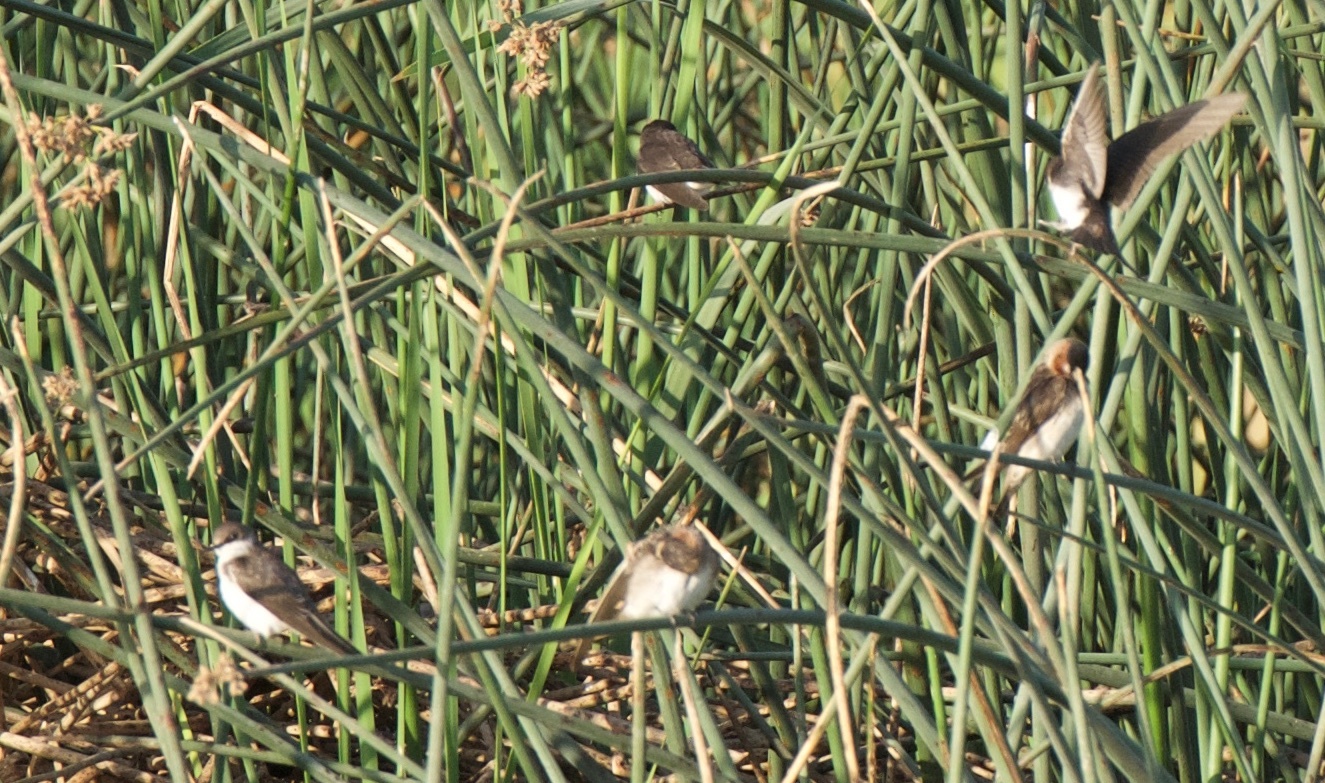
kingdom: Animalia
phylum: Chordata
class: Aves
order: Passeriformes
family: Hirundinidae
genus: Tachycineta
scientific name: Tachycineta bicolor
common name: Tree swallow
